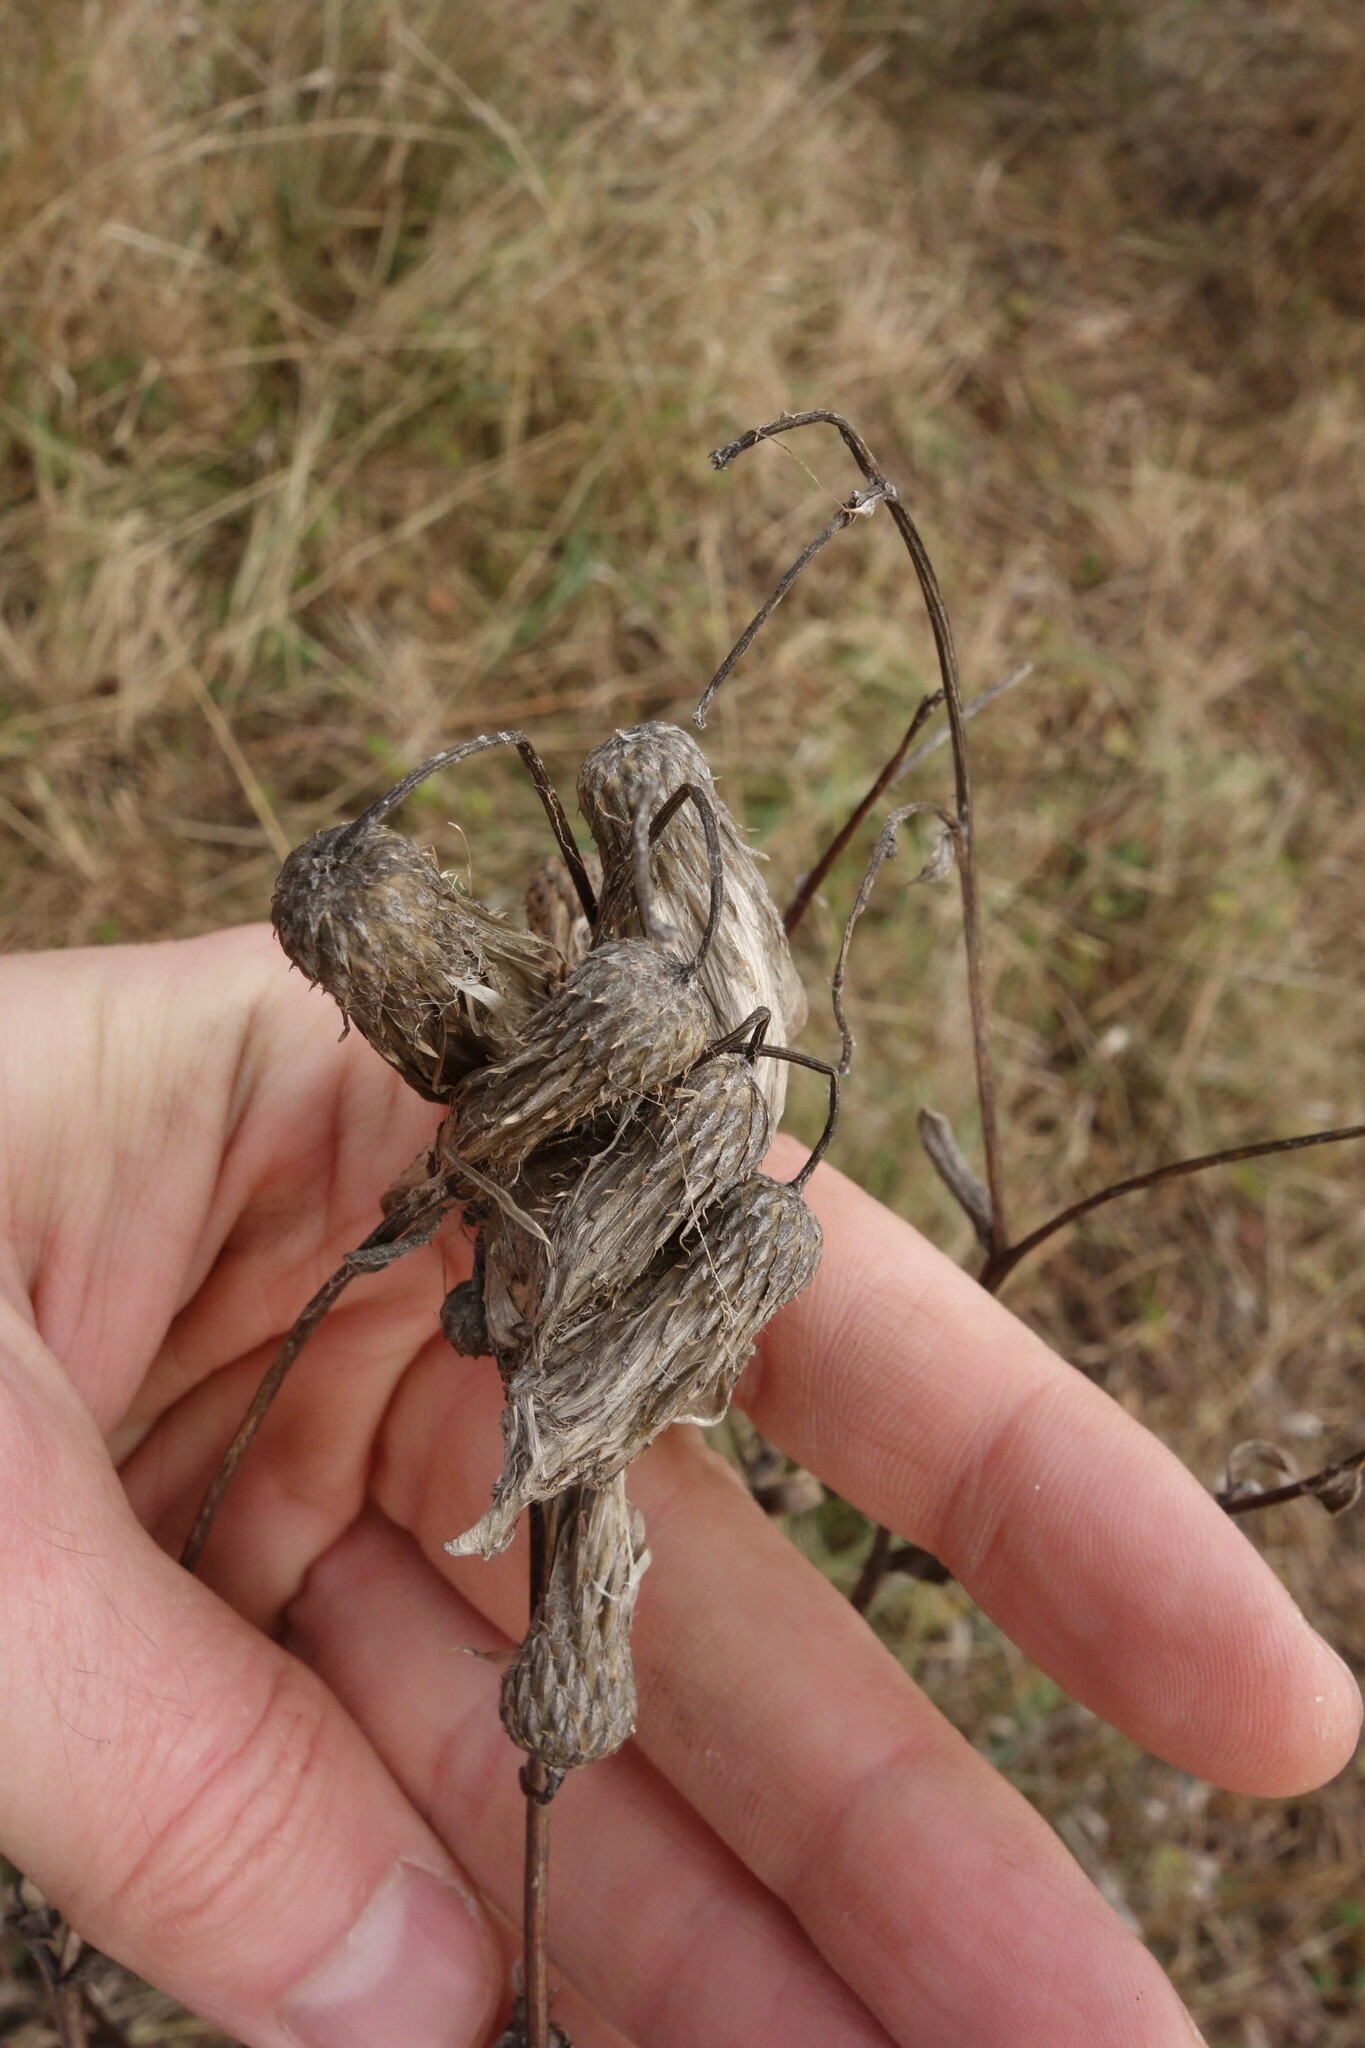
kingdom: Plantae
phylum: Tracheophyta
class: Magnoliopsida
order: Asterales
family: Asteraceae
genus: Cirsium
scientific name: Cirsium arvense
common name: Creeping thistle
